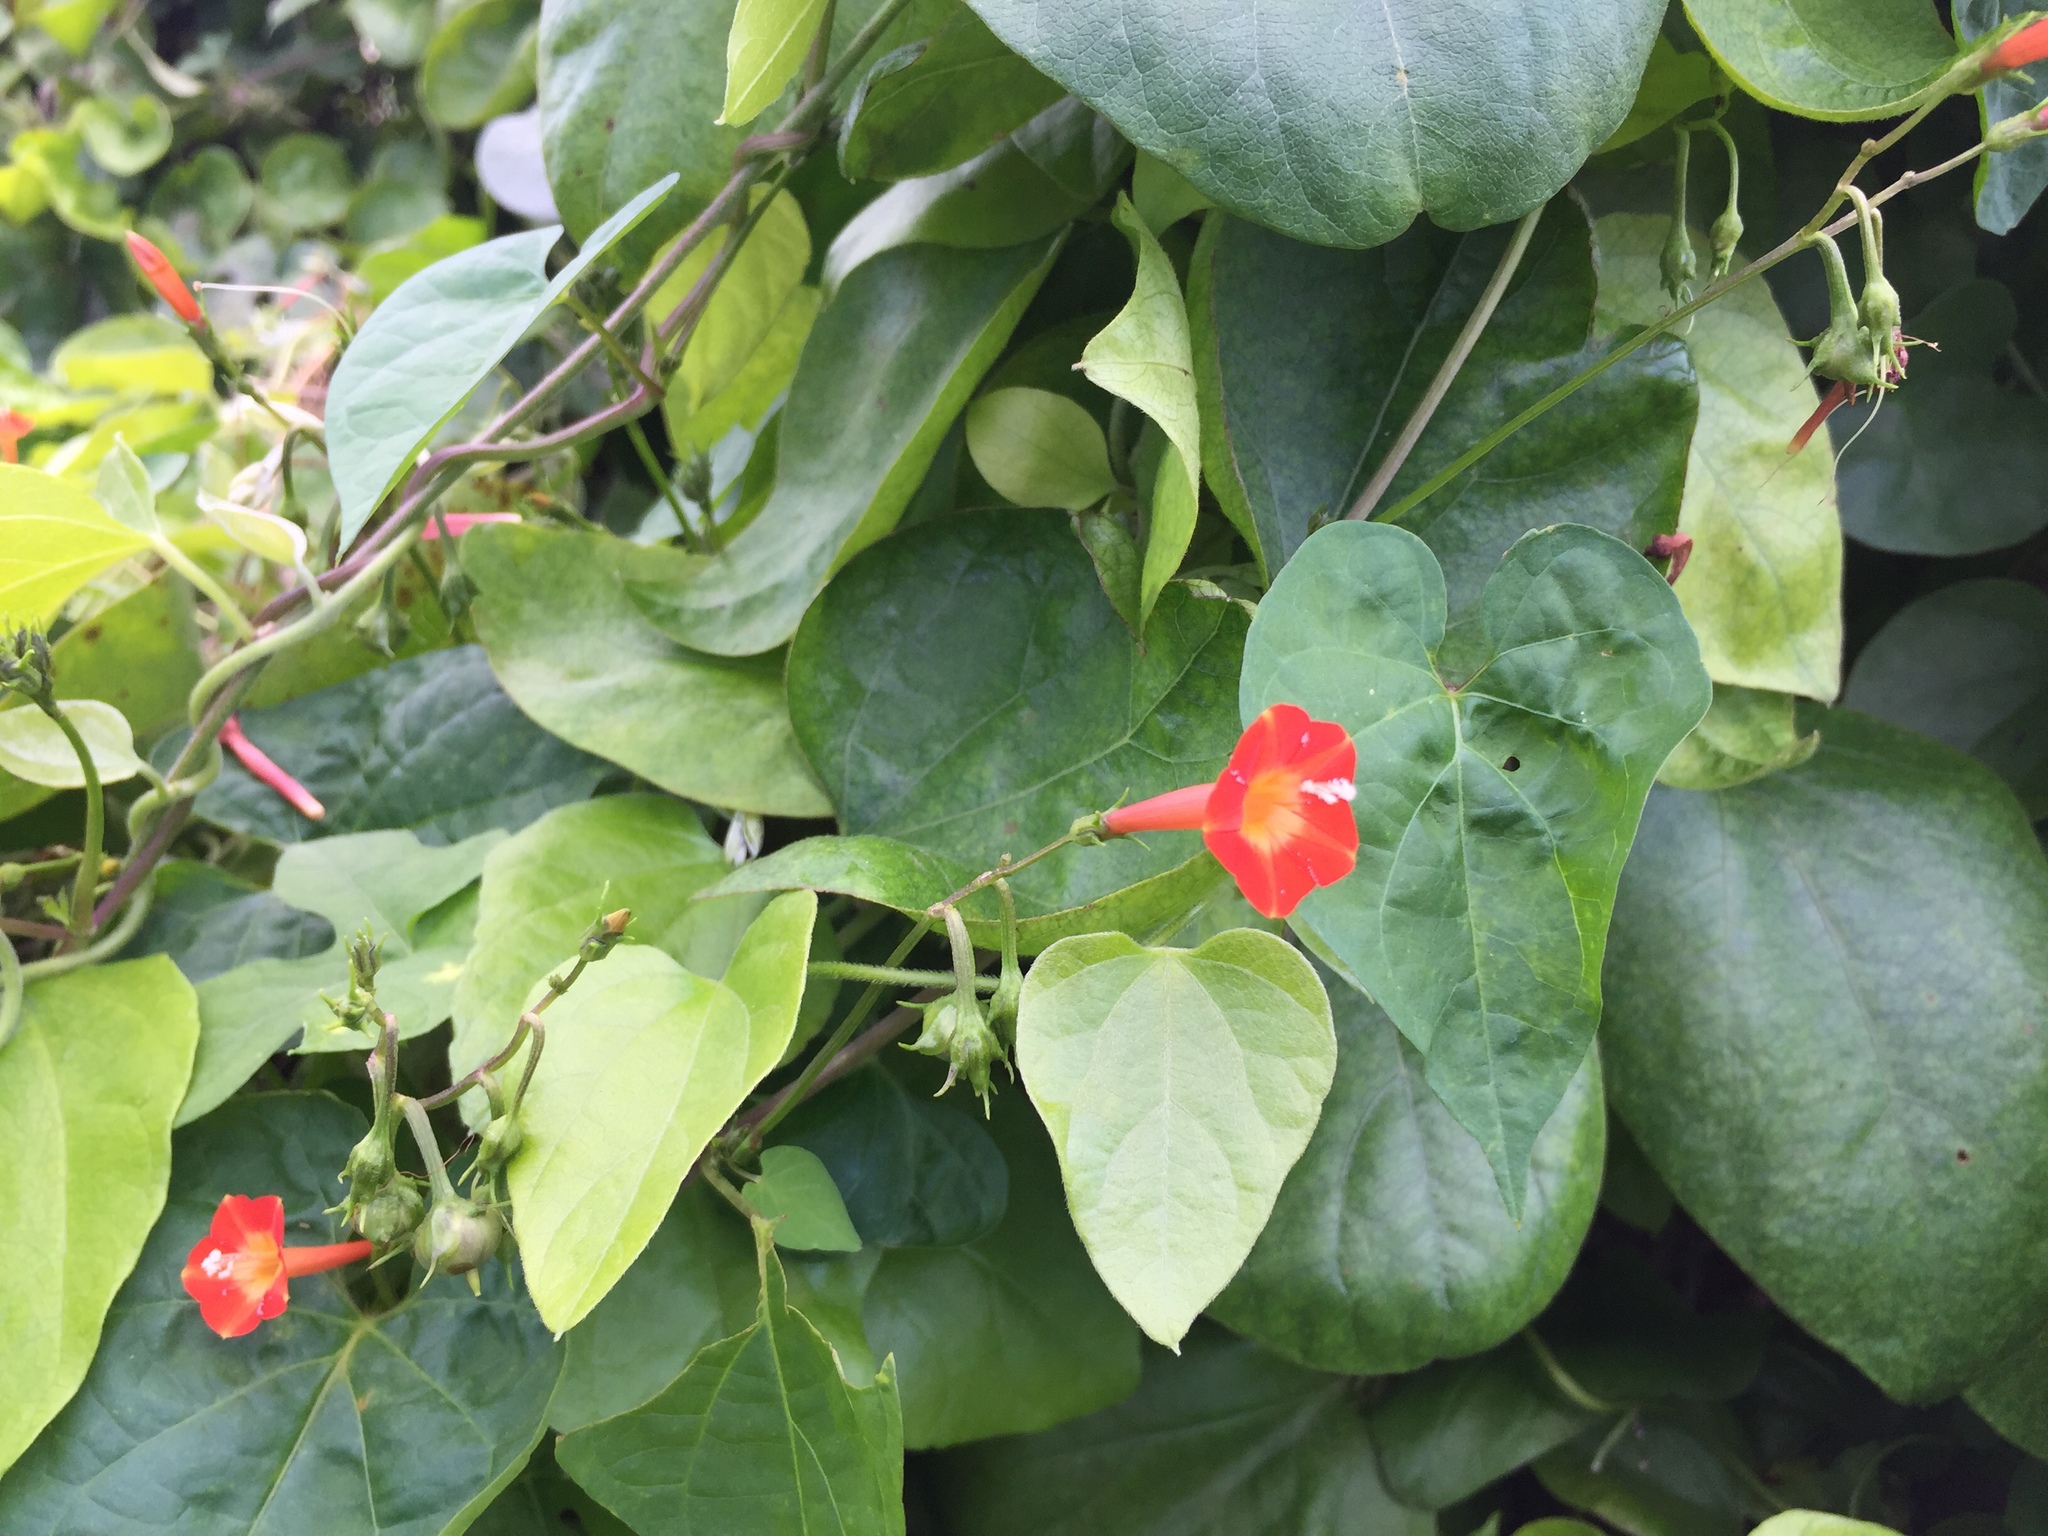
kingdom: Plantae
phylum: Tracheophyta
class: Magnoliopsida
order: Solanales
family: Convolvulaceae
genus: Ipomoea
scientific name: Ipomoea coccinea
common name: Red morning-glory
